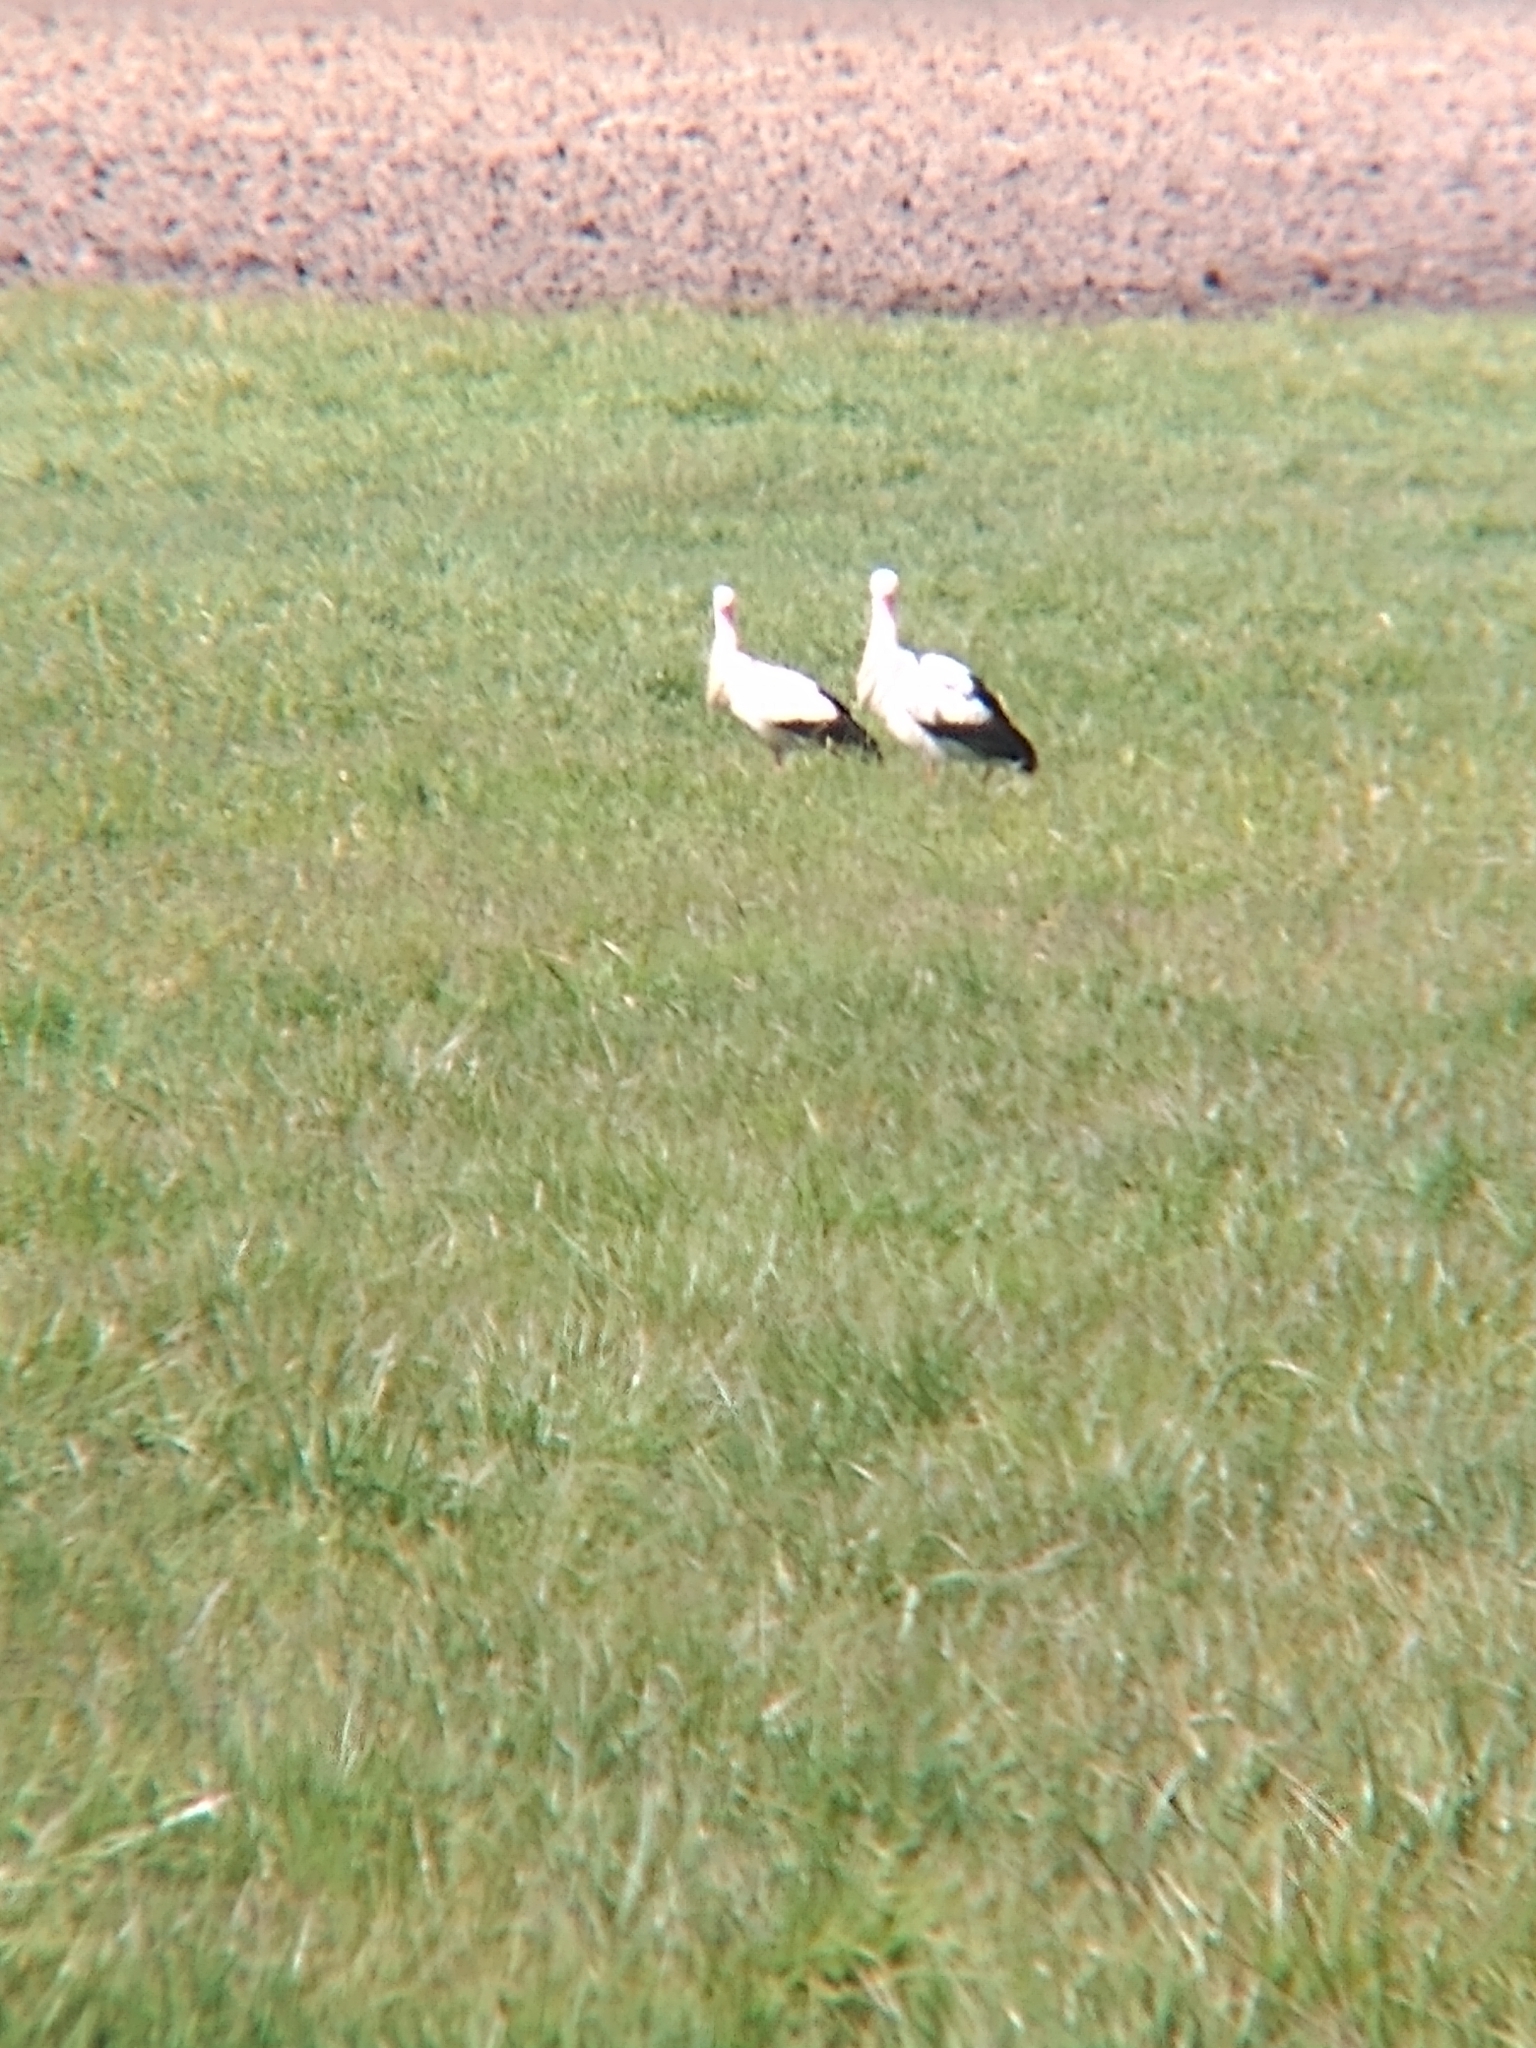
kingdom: Animalia
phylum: Chordata
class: Aves
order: Ciconiiformes
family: Ciconiidae
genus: Ciconia
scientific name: Ciconia ciconia
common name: White stork
